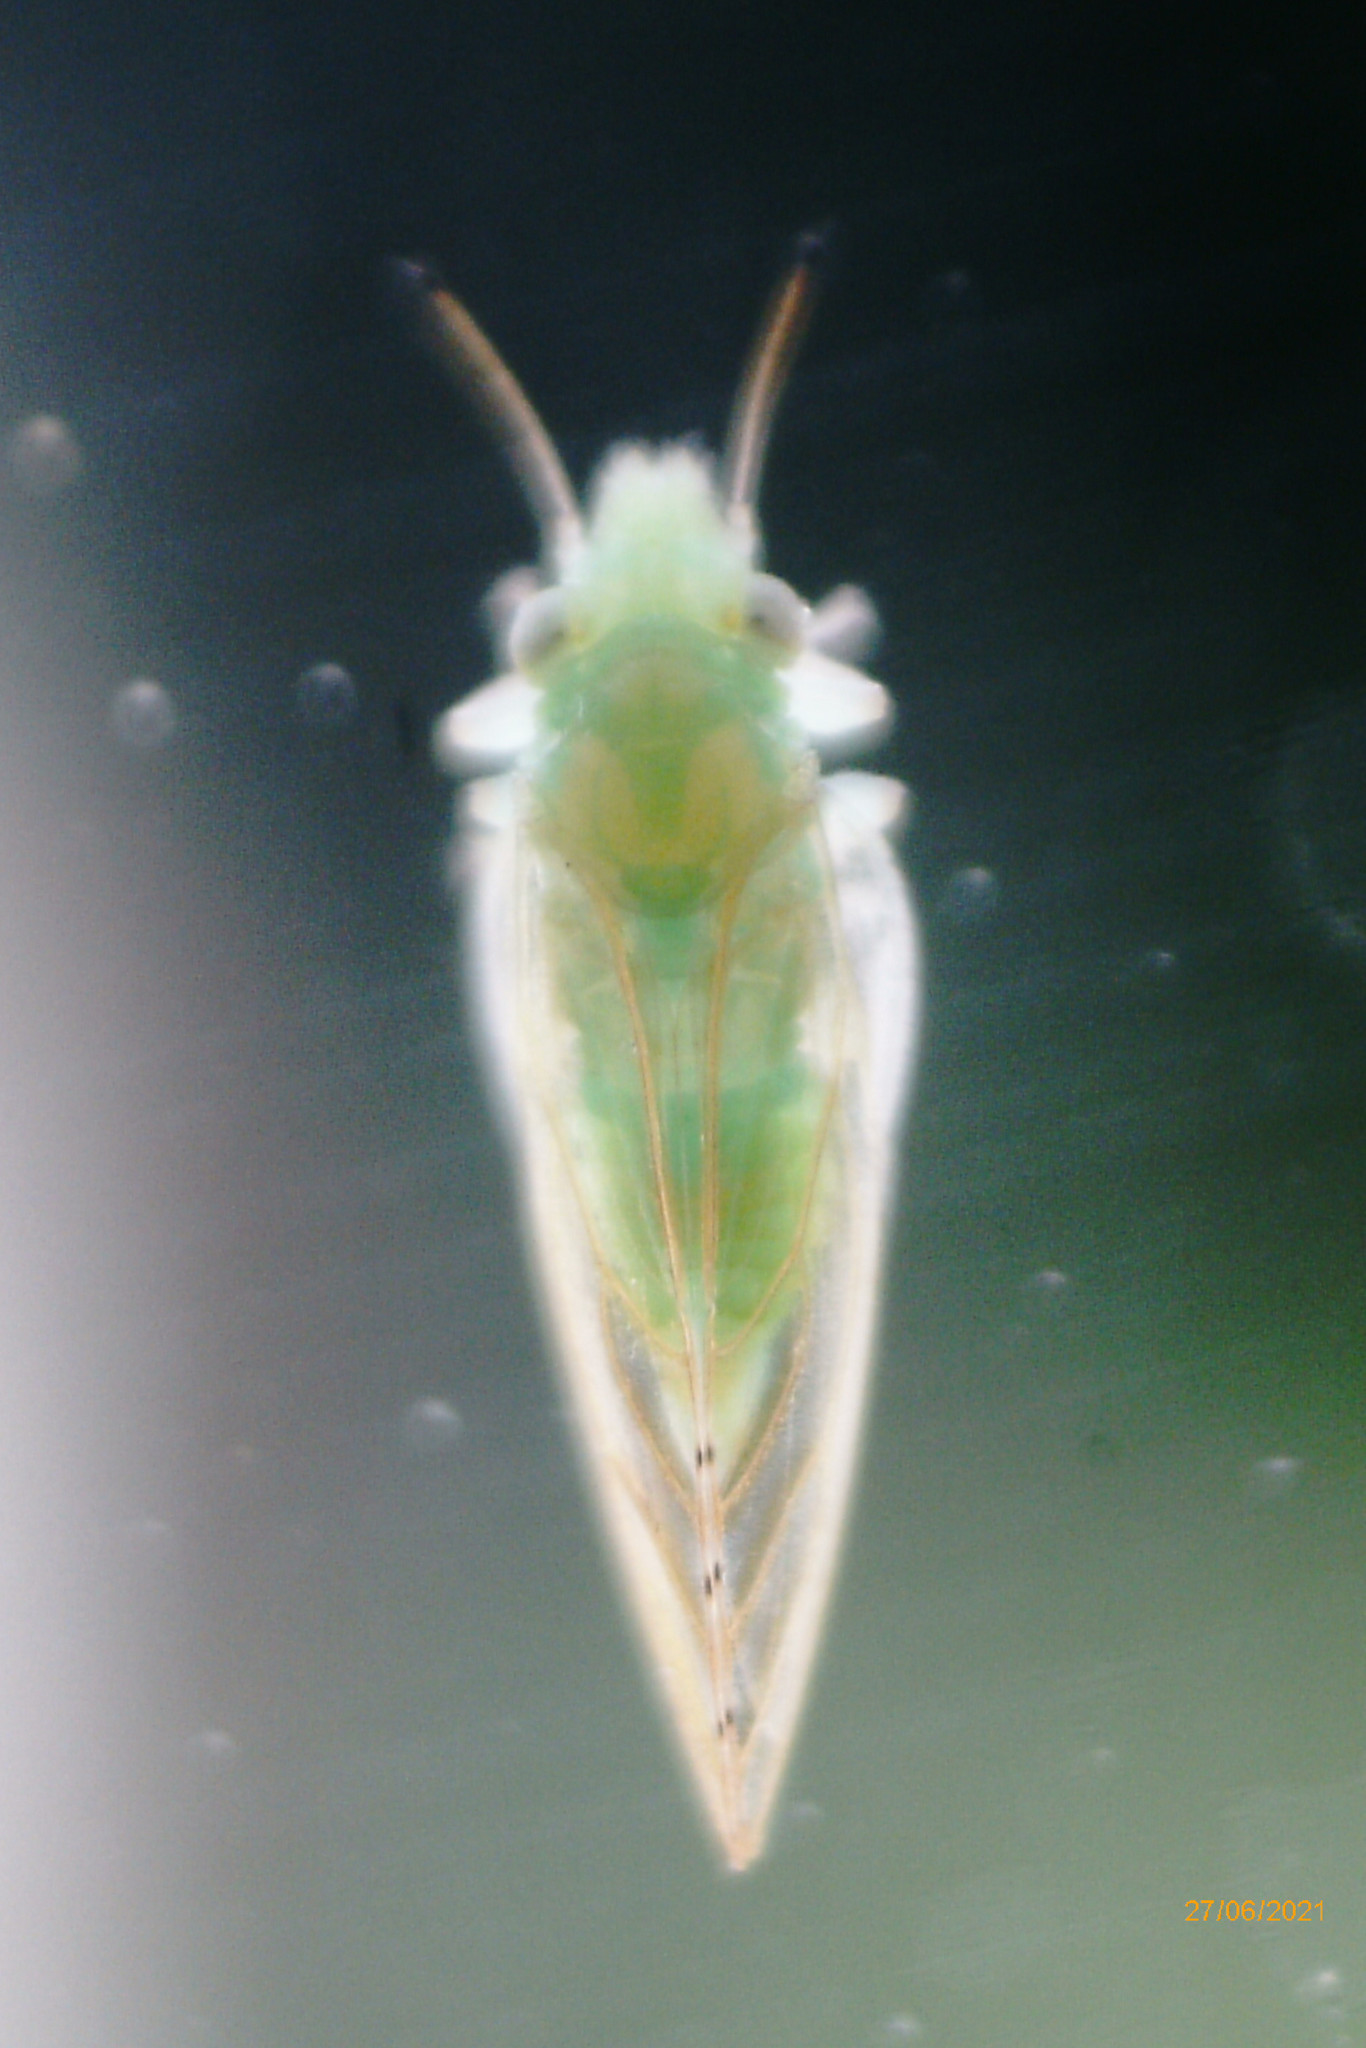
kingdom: Animalia
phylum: Arthropoda
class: Insecta
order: Hemiptera
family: Psyllidae
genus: Spanioneura
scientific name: Spanioneura fonscolombii
